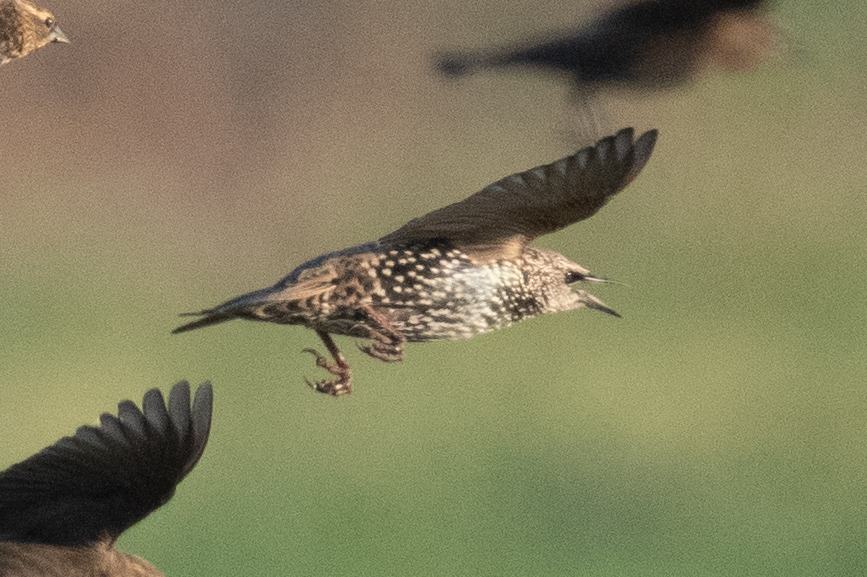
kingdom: Animalia
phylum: Chordata
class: Aves
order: Passeriformes
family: Sturnidae
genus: Sturnus
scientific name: Sturnus vulgaris
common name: Common starling
